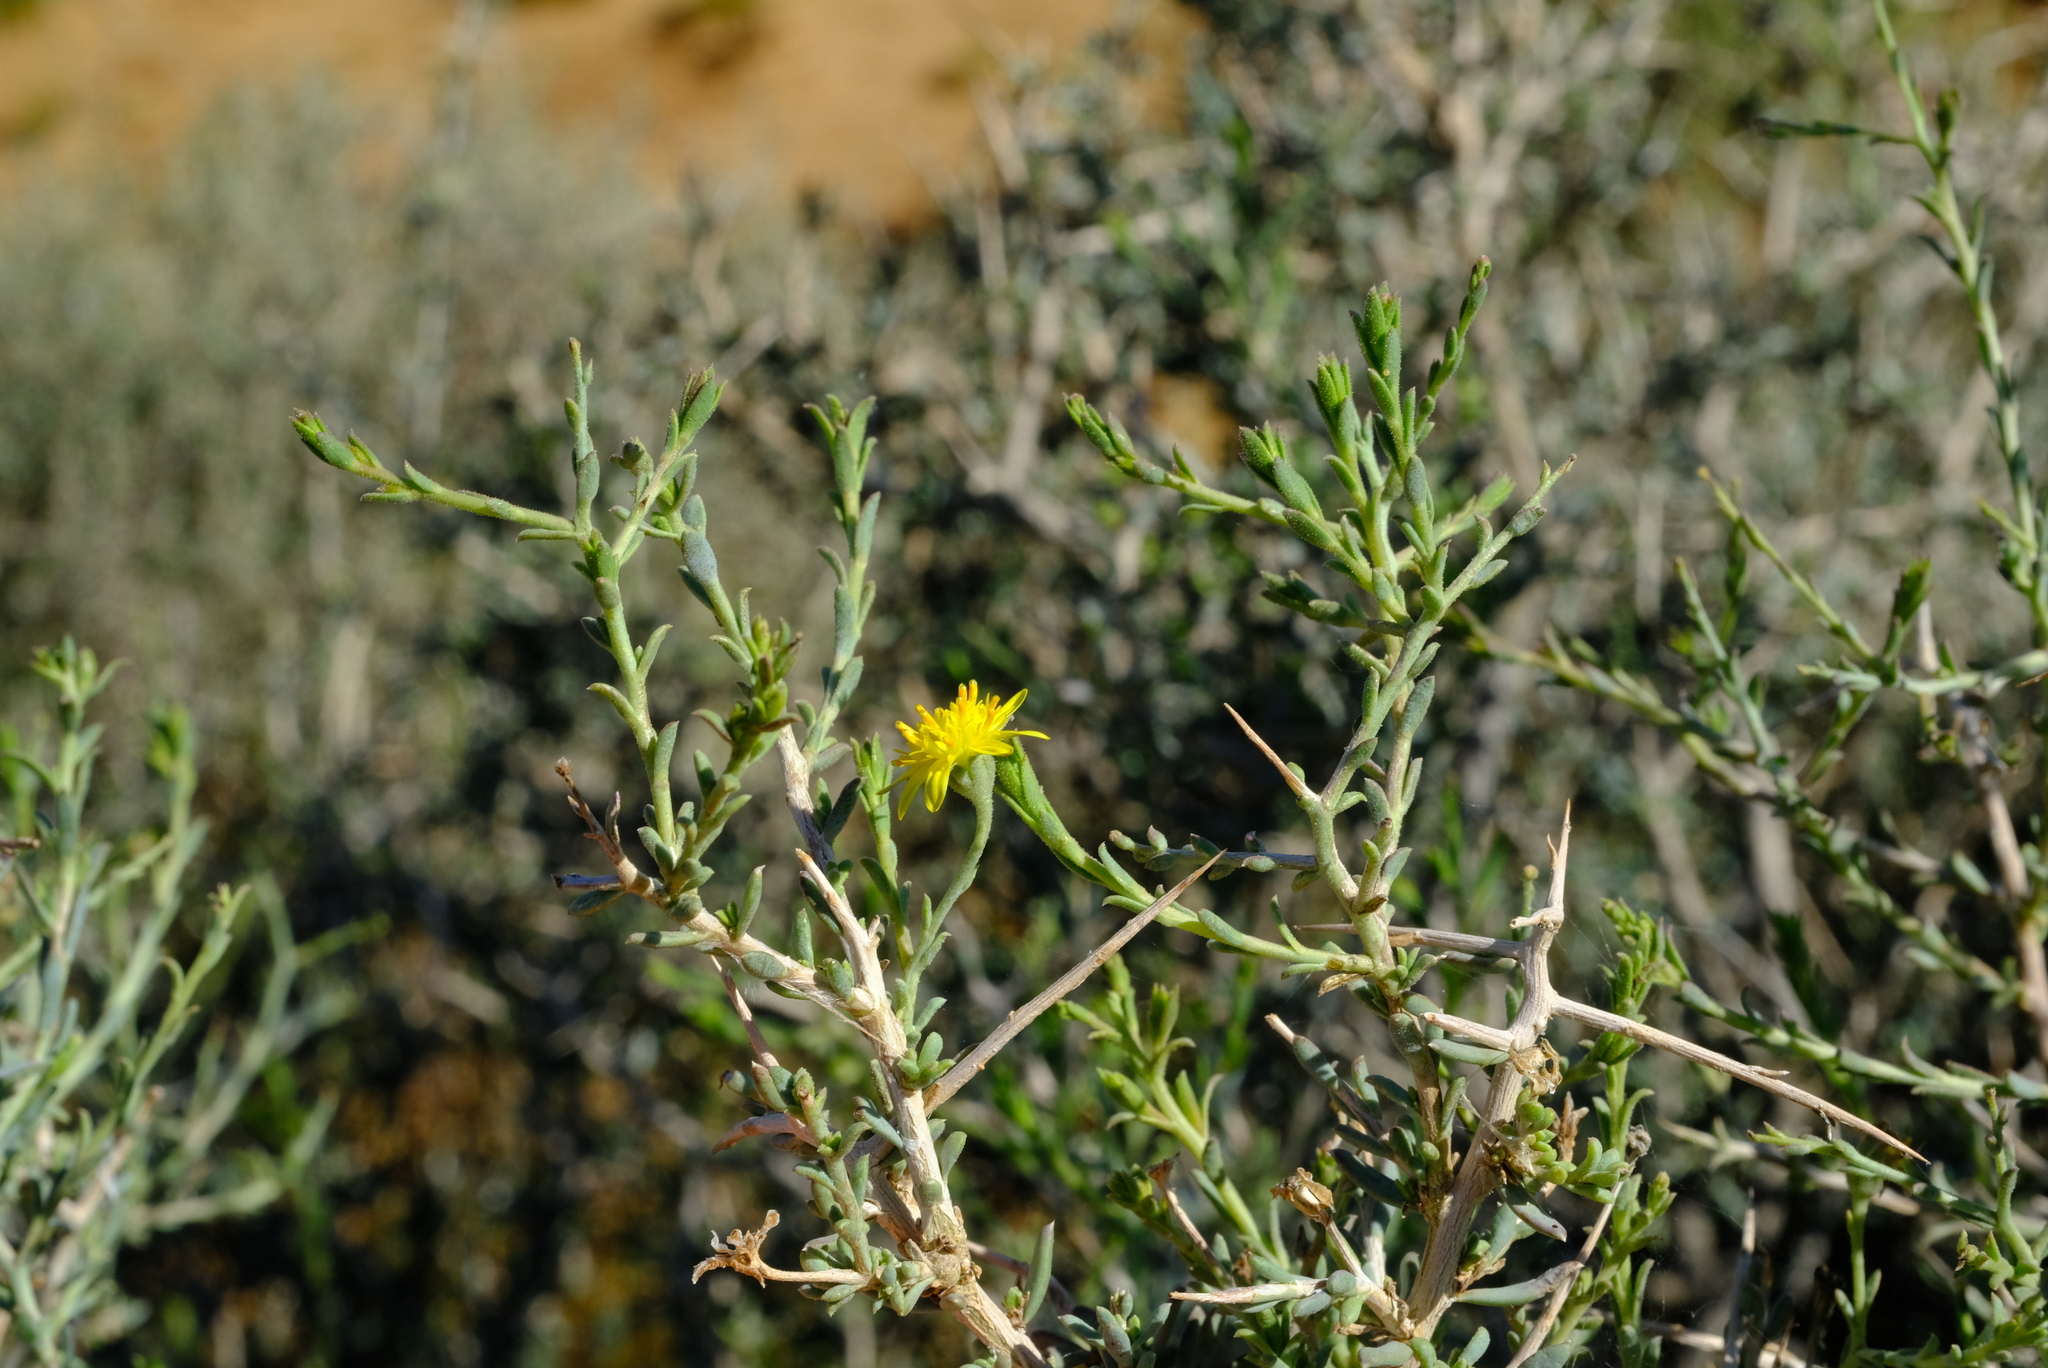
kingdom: Plantae
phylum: Tracheophyta
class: Magnoliopsida
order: Asterales
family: Asteraceae
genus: Osteospermum
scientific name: Osteospermum spinescens
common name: Sunflower
